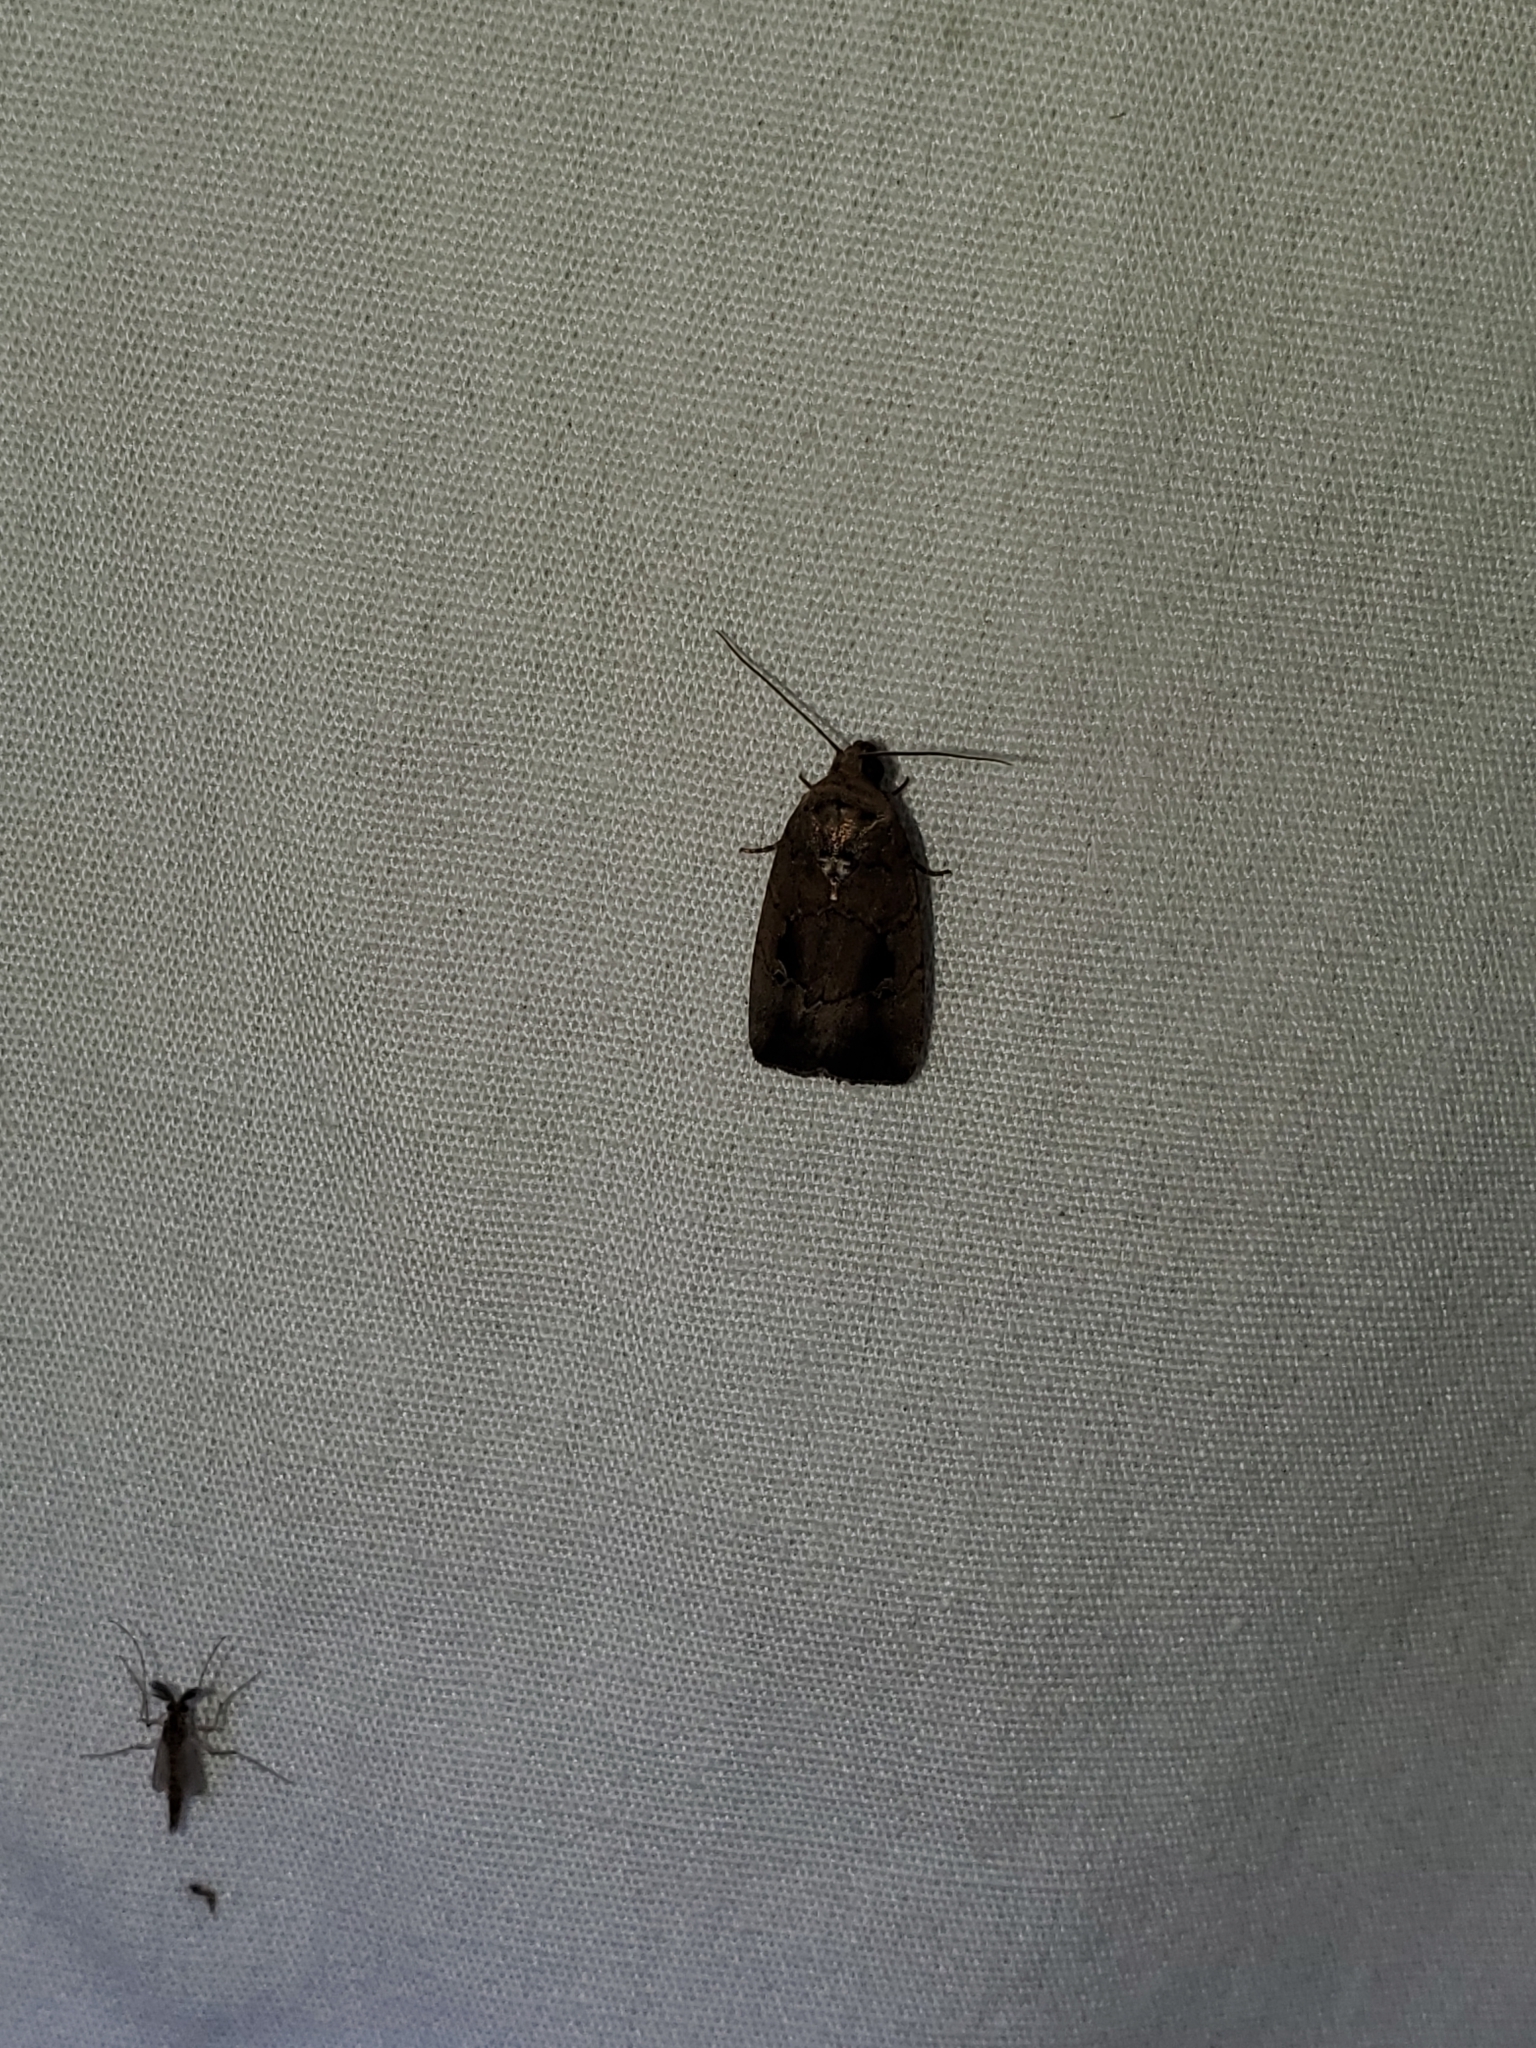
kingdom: Animalia
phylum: Arthropoda
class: Insecta
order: Lepidoptera
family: Noctuidae
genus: Elaphria
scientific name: Elaphria nucicolora
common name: Sugarcane midget moth
